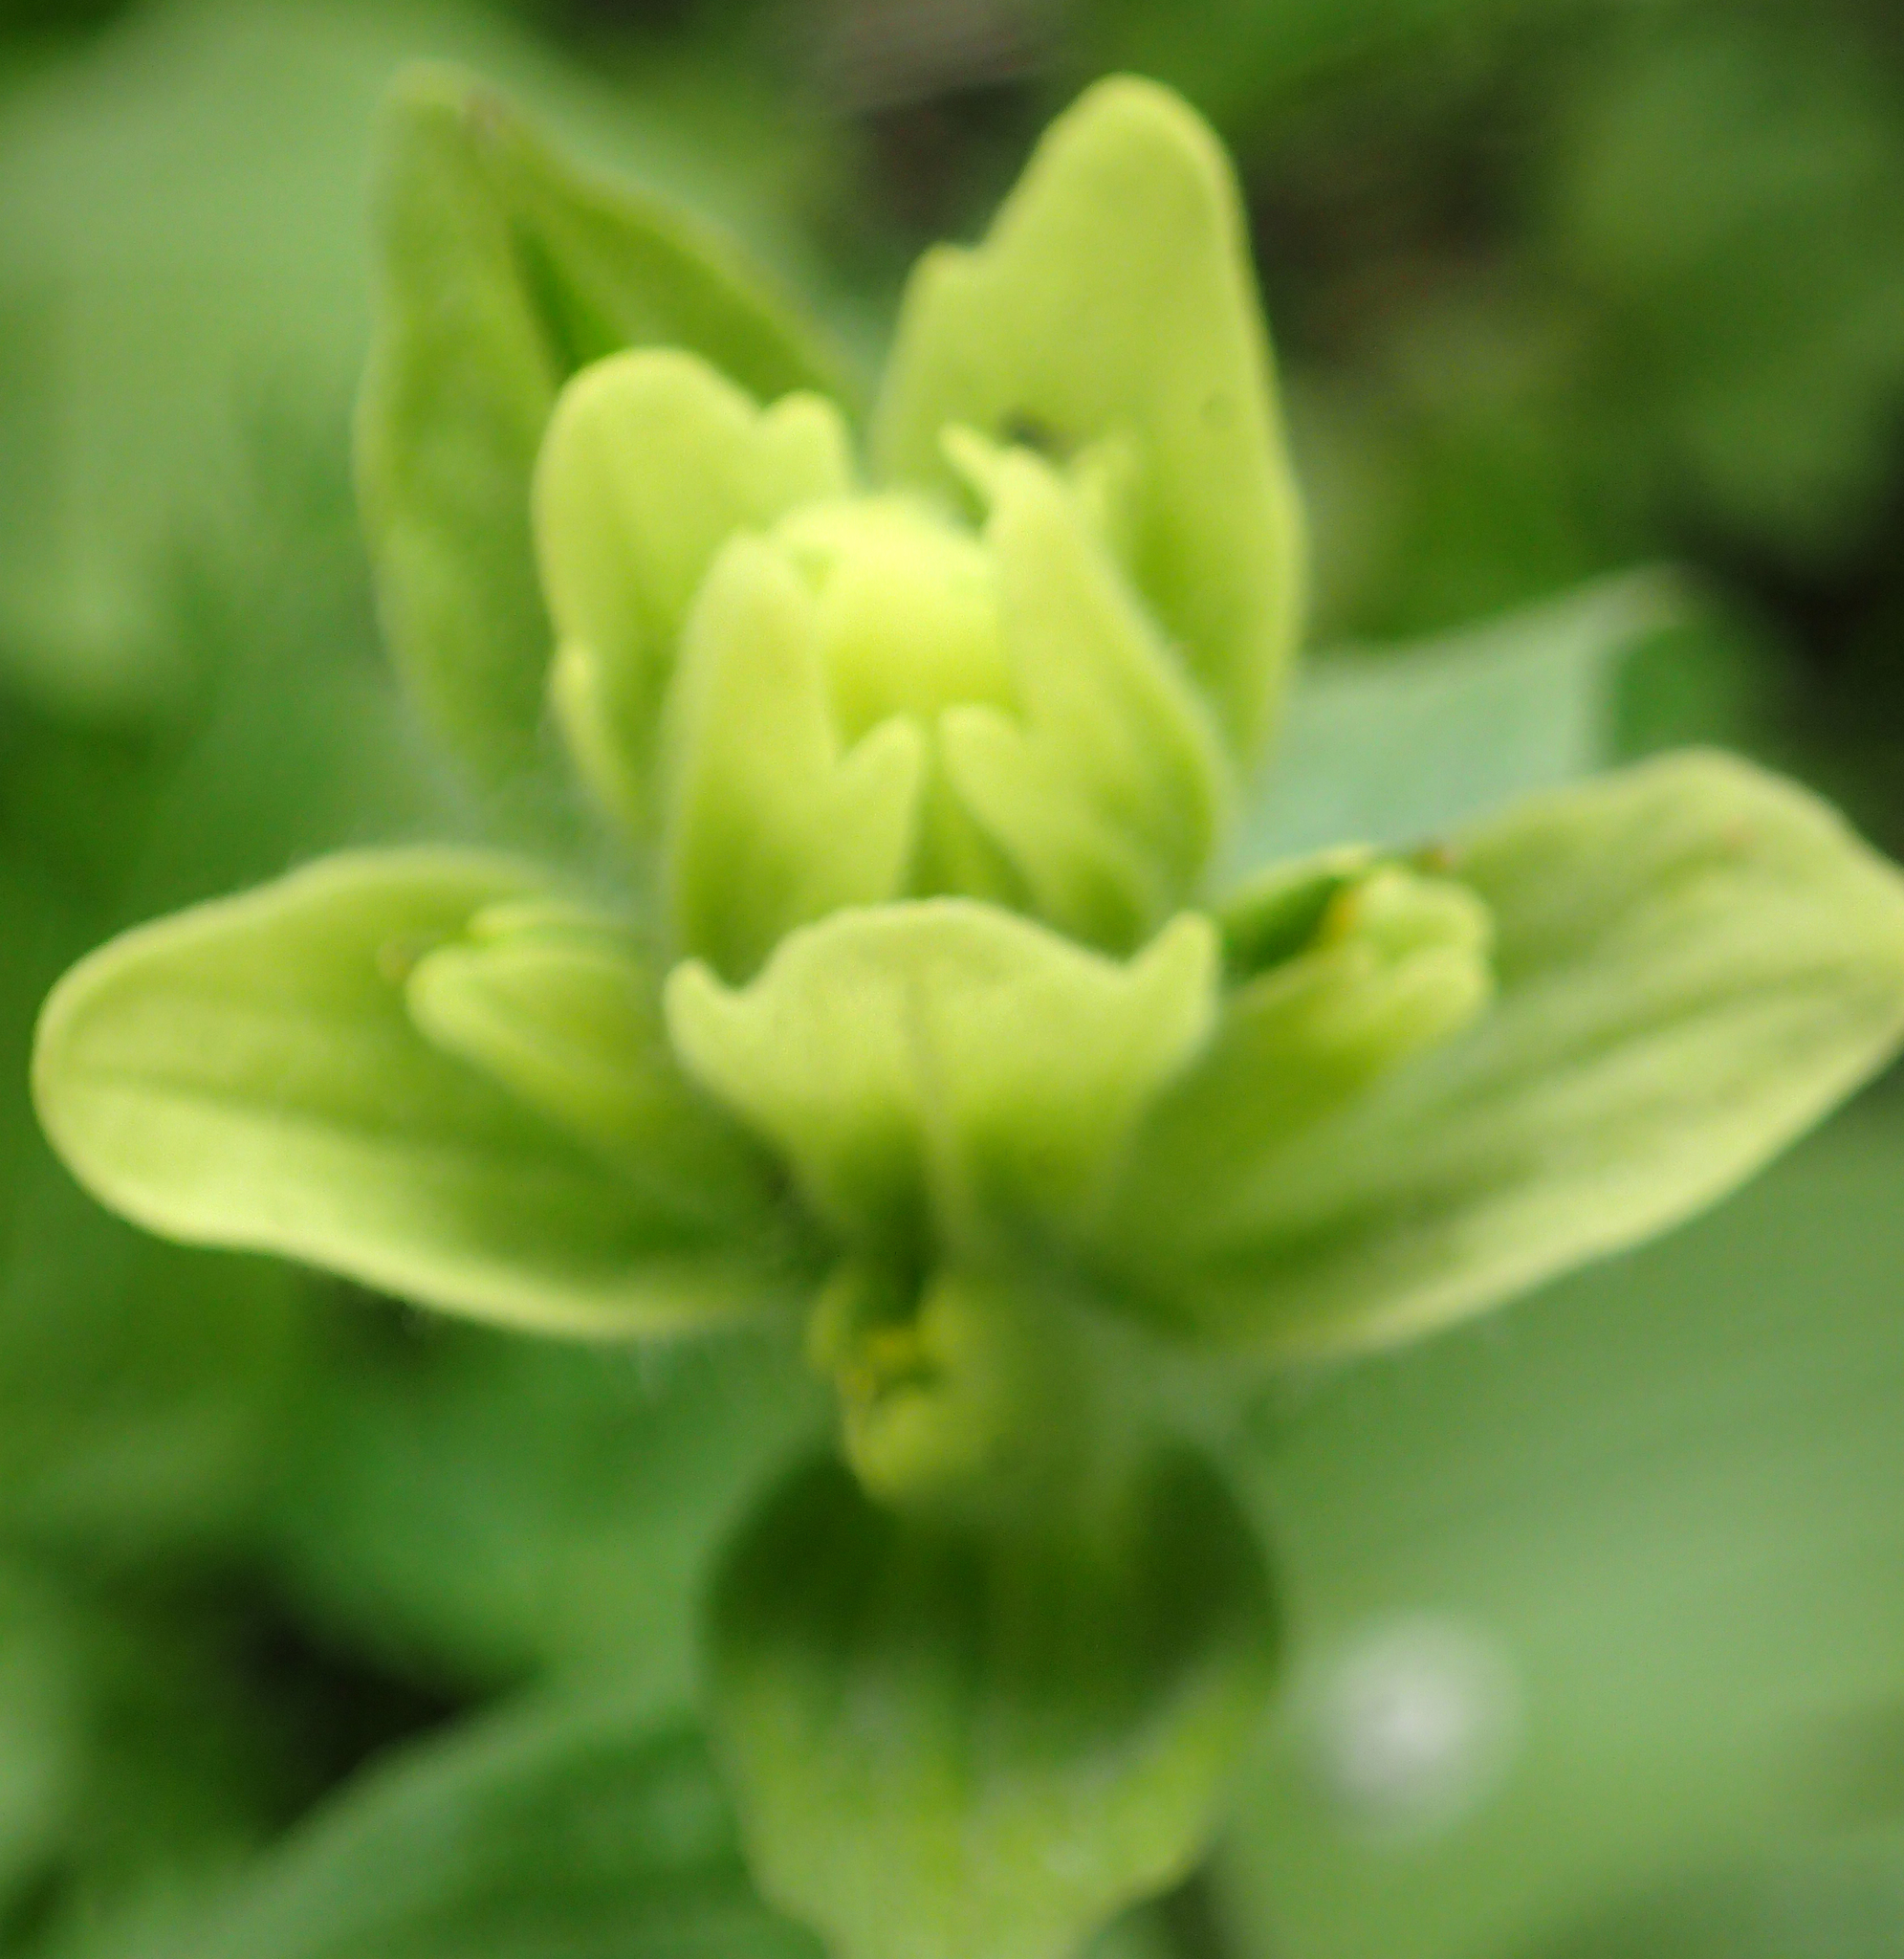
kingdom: Plantae
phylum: Tracheophyta
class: Magnoliopsida
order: Lamiales
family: Orobanchaceae
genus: Castilleja
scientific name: Castilleja unalaschcensis
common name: Unalaska paintbrush
